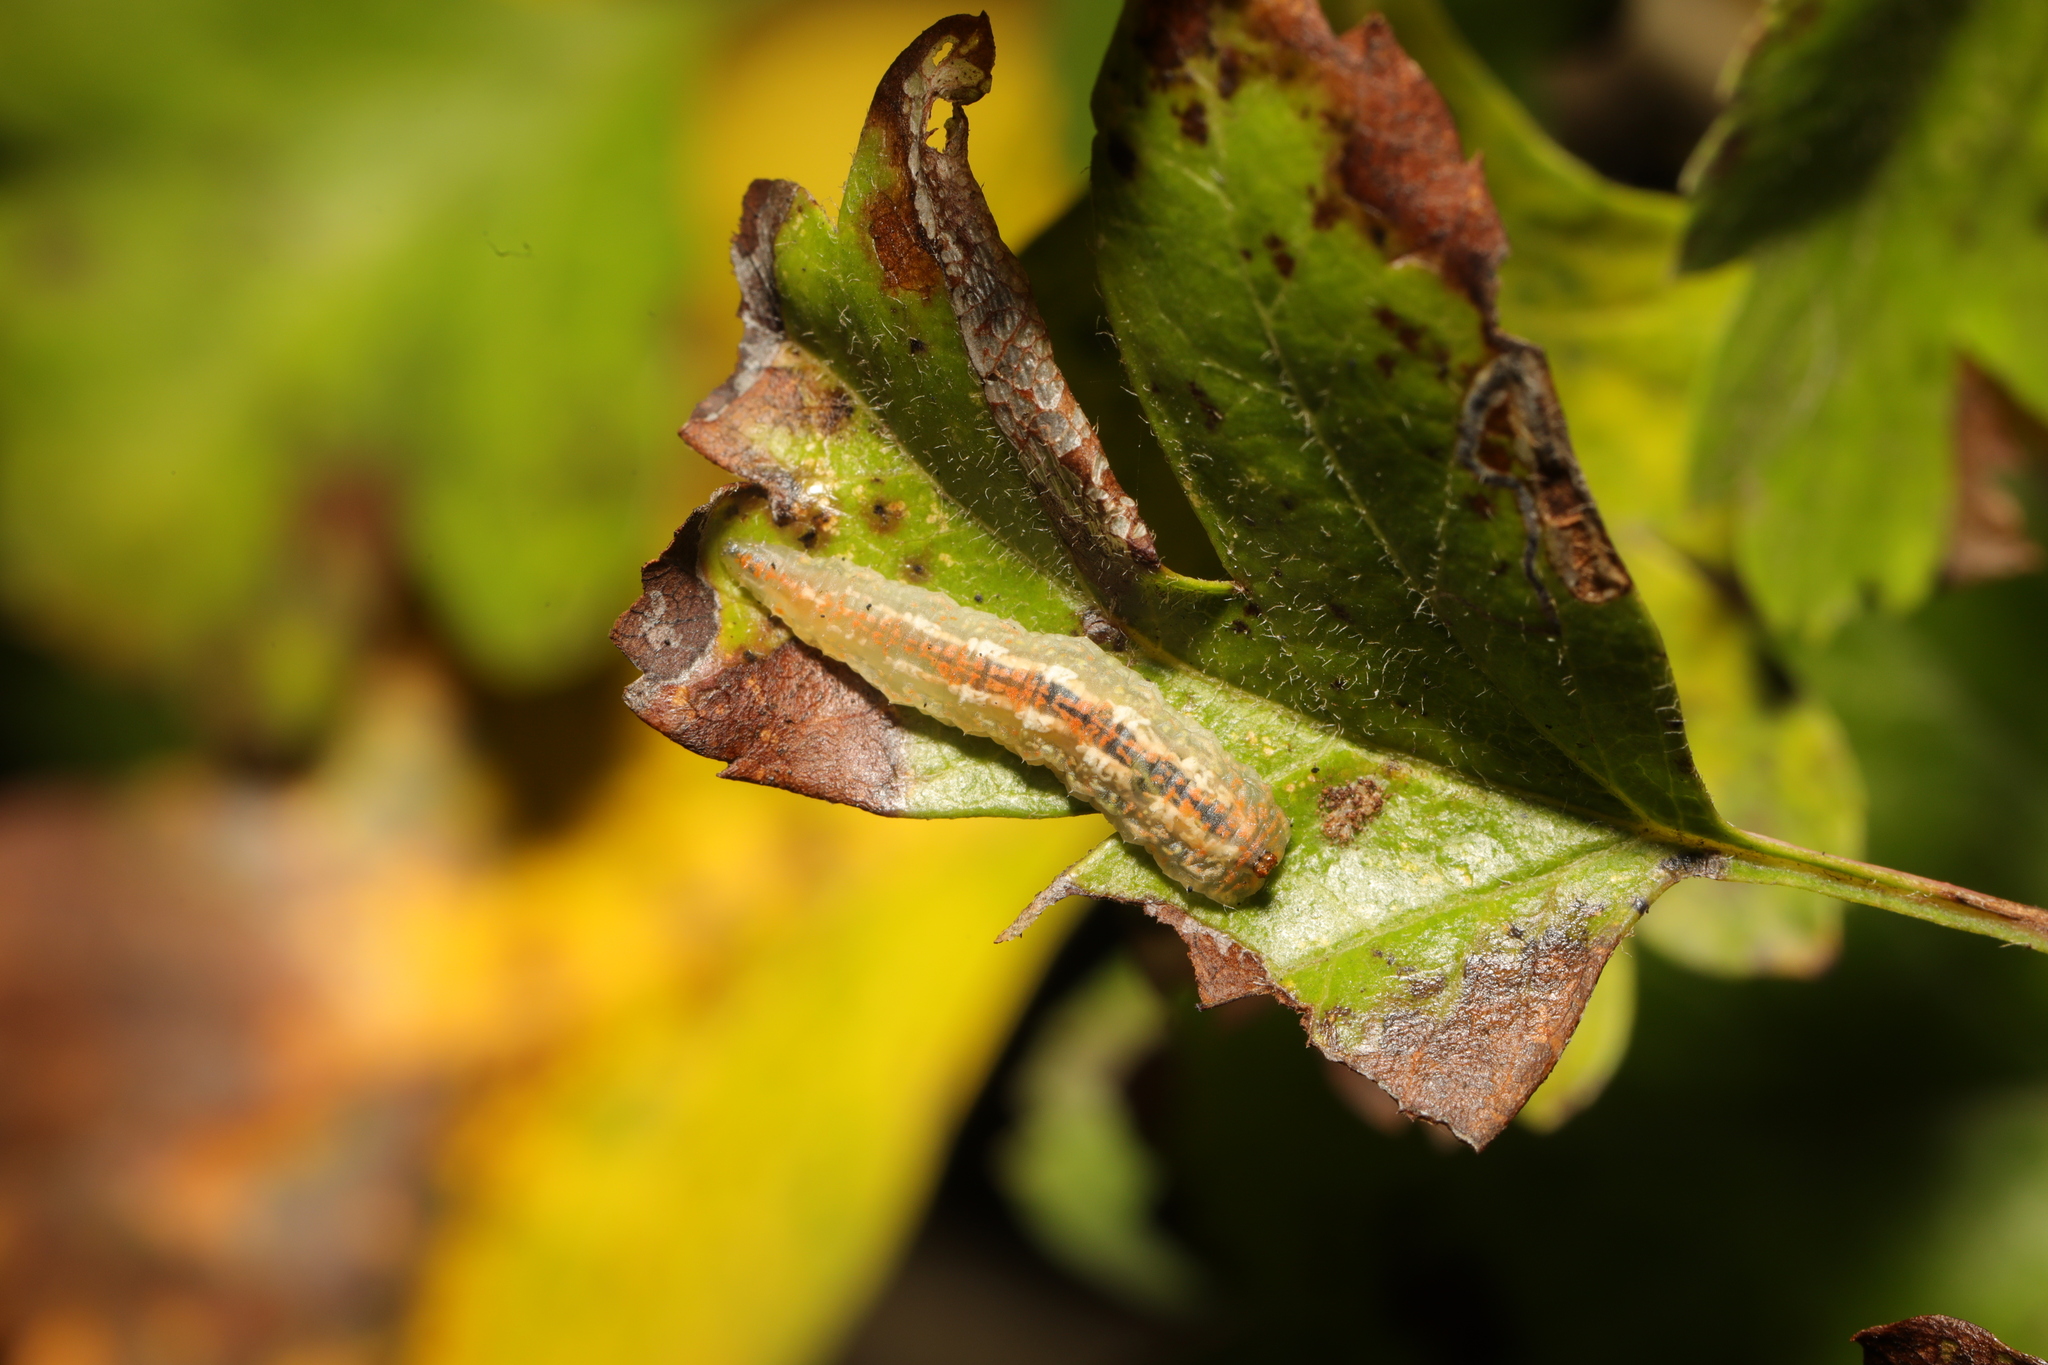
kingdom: Animalia
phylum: Arthropoda
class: Insecta
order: Diptera
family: Syrphidae
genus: Syrphus
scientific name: Syrphus
